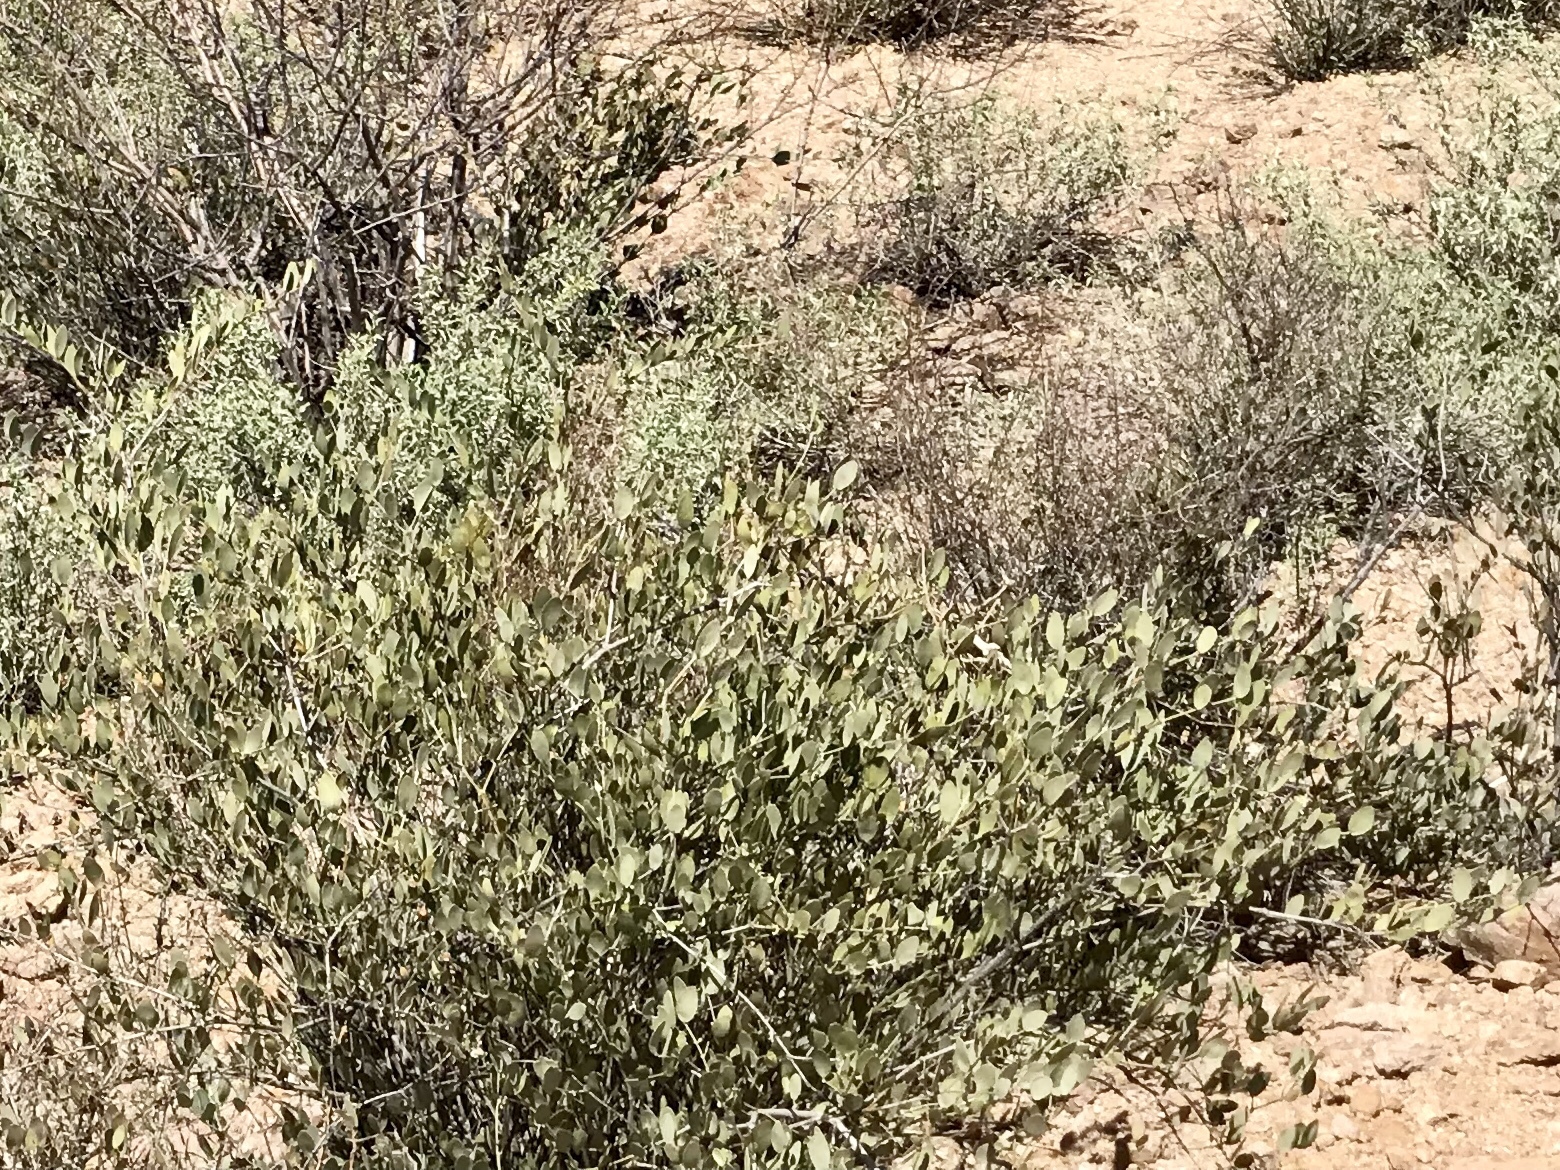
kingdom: Plantae
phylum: Tracheophyta
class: Magnoliopsida
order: Caryophyllales
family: Simmondsiaceae
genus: Simmondsia
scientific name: Simmondsia chinensis
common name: Jojoba
